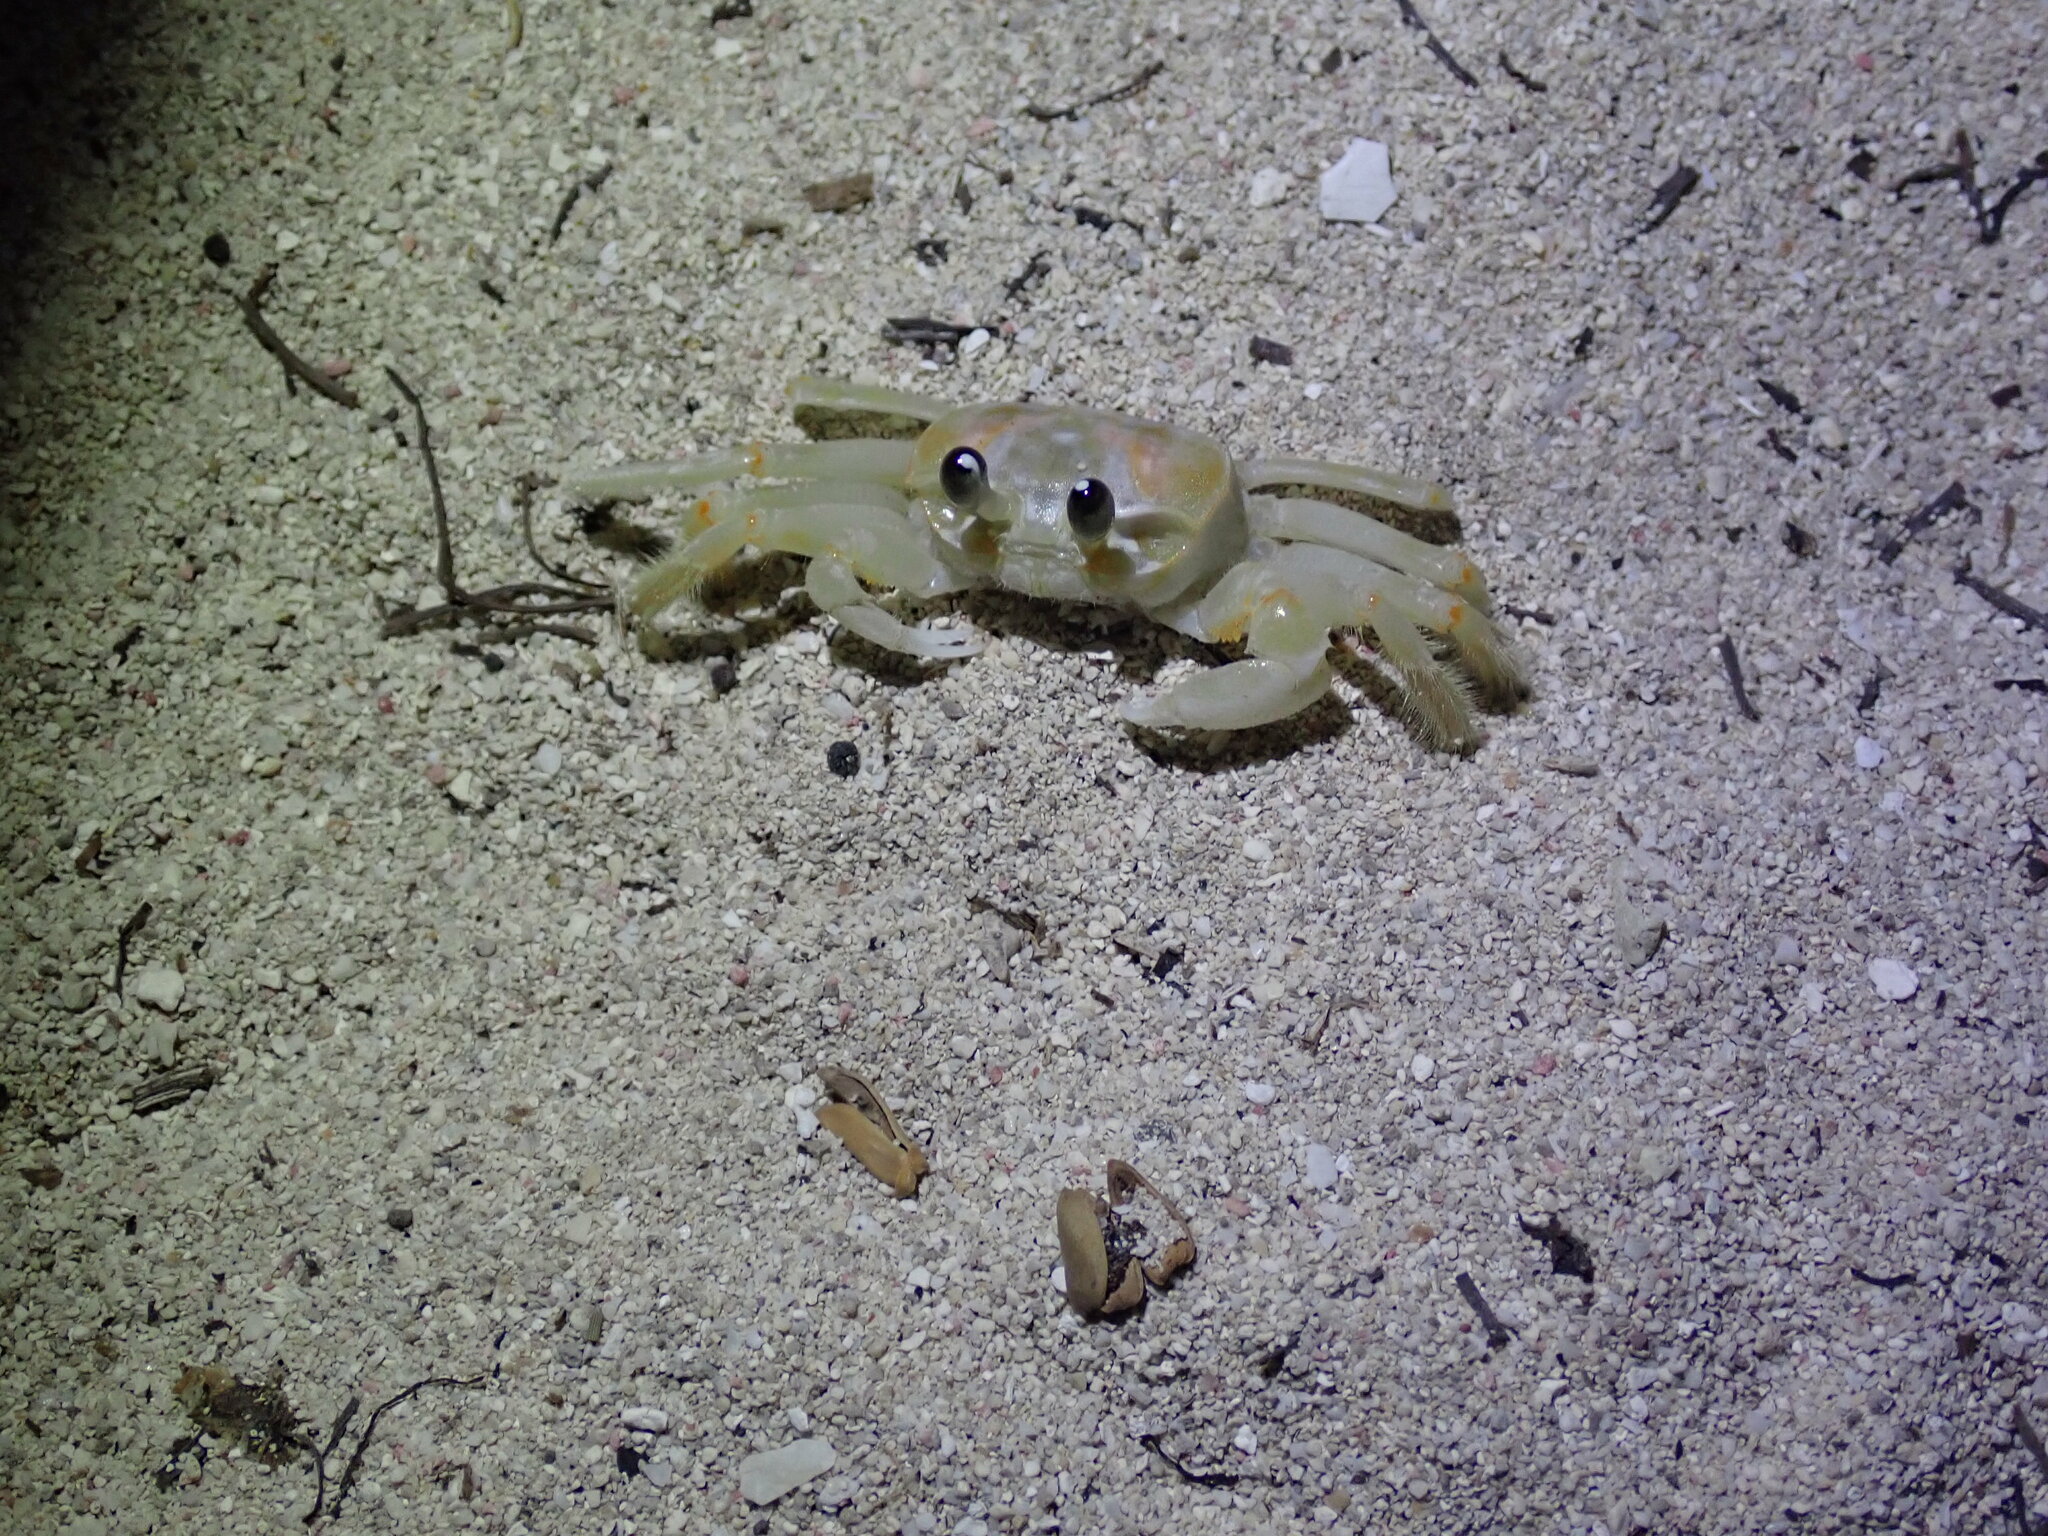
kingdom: Animalia
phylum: Arthropoda
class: Malacostraca
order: Decapoda
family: Ocypodidae
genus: Ocypode
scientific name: Ocypode quadrata
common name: Ghost crab
